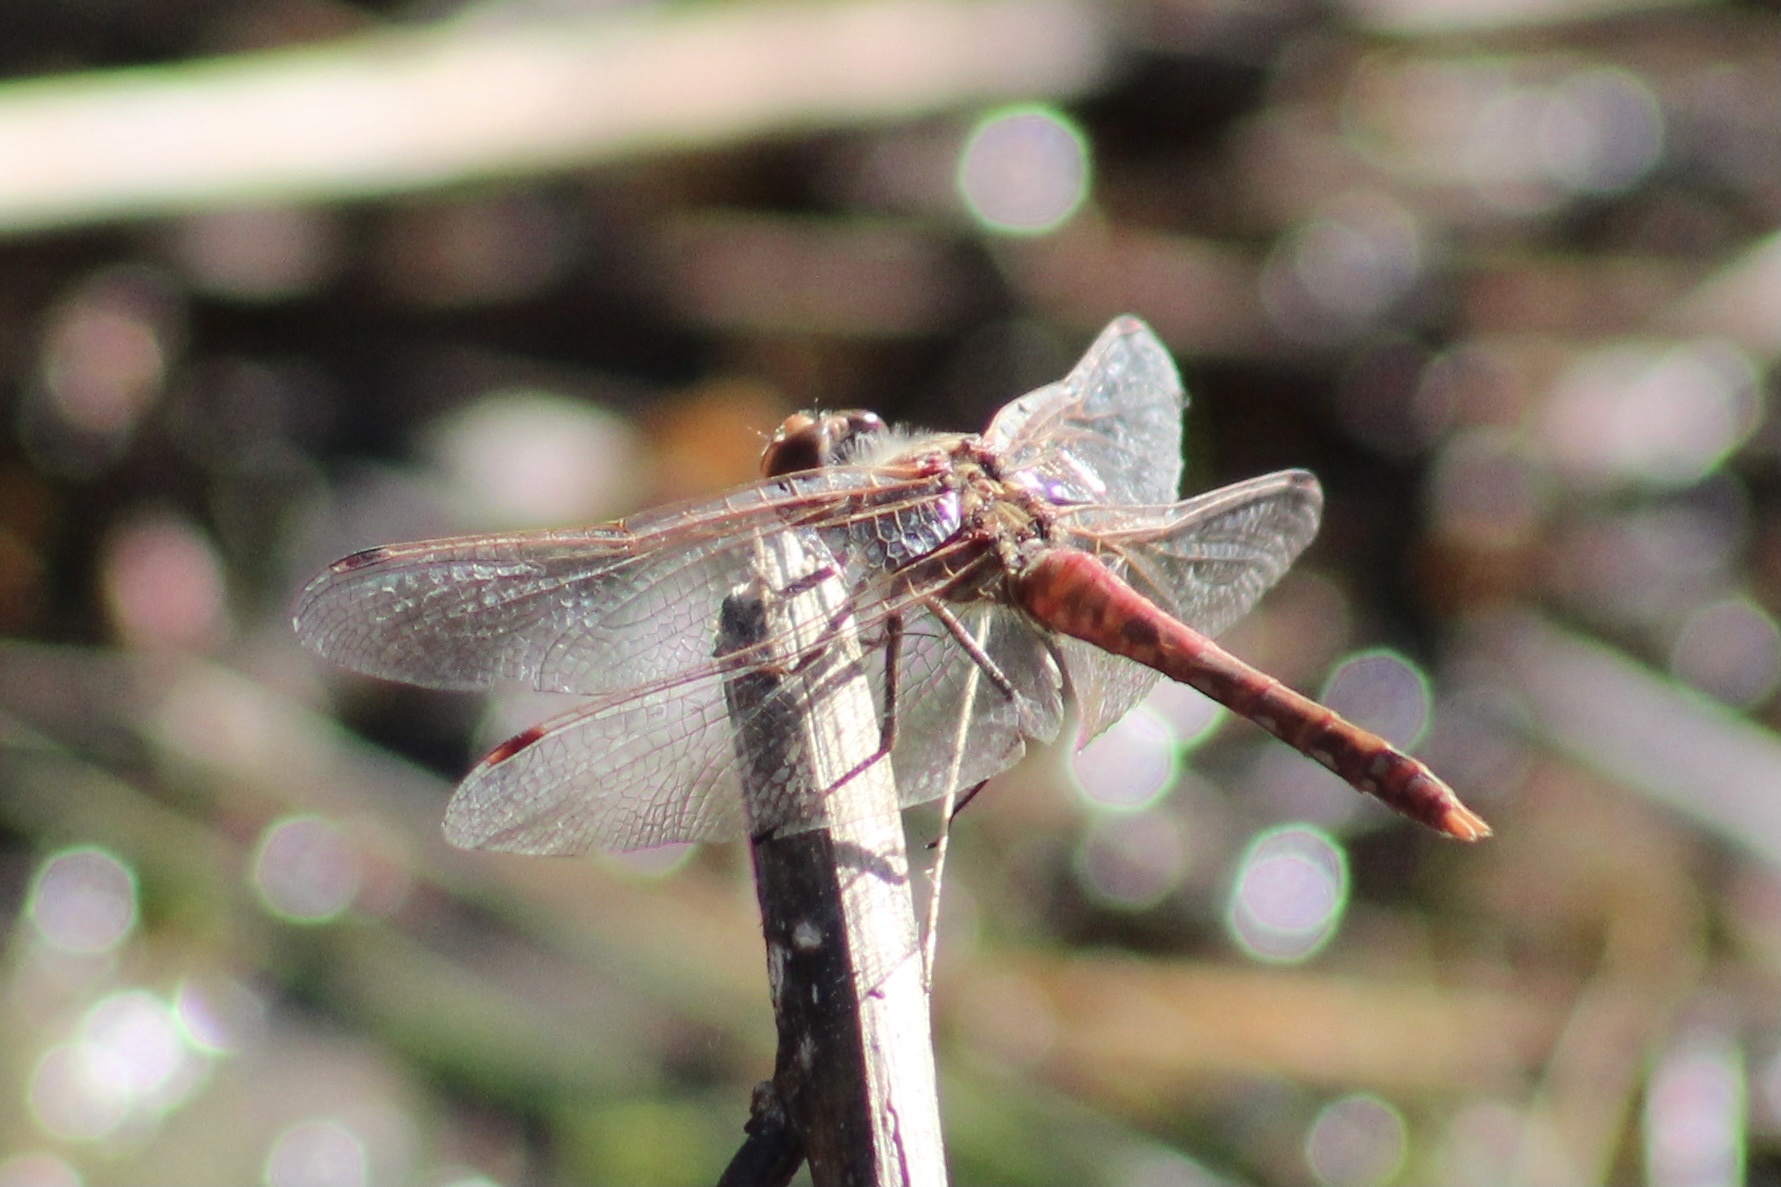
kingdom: Animalia
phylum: Arthropoda
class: Insecta
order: Odonata
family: Libellulidae
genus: Sympetrum
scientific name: Sympetrum corruptum
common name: Variegated meadowhawk
